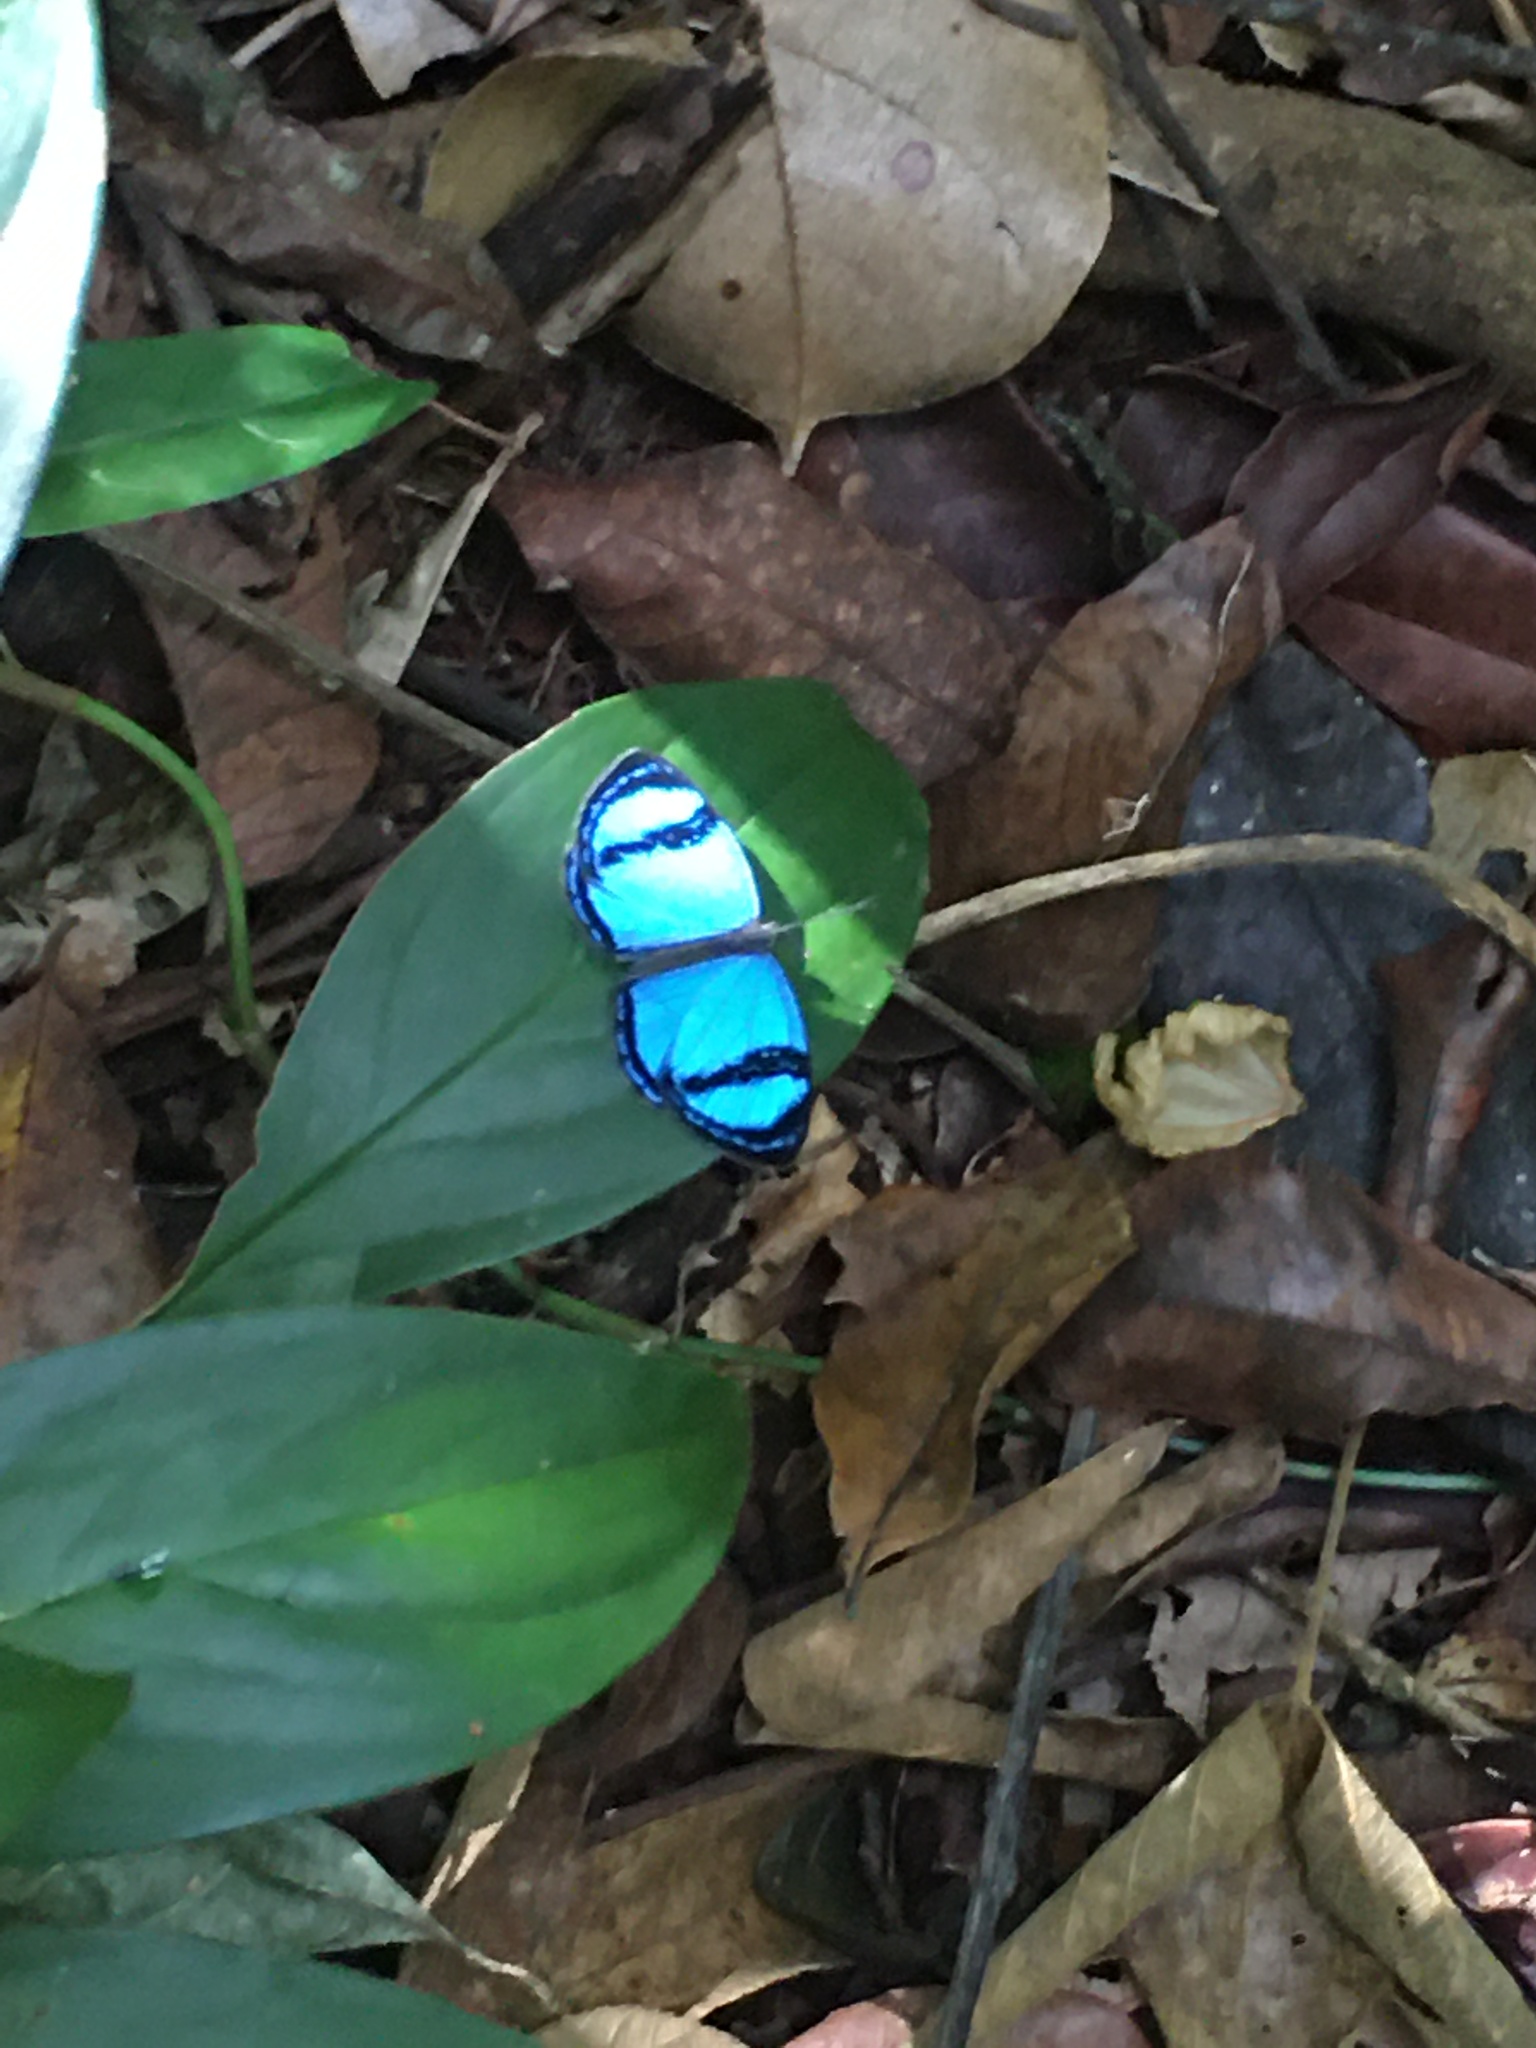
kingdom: Animalia
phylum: Arthropoda
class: Insecta
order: Lepidoptera
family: Riodinidae
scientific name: Riodinidae
